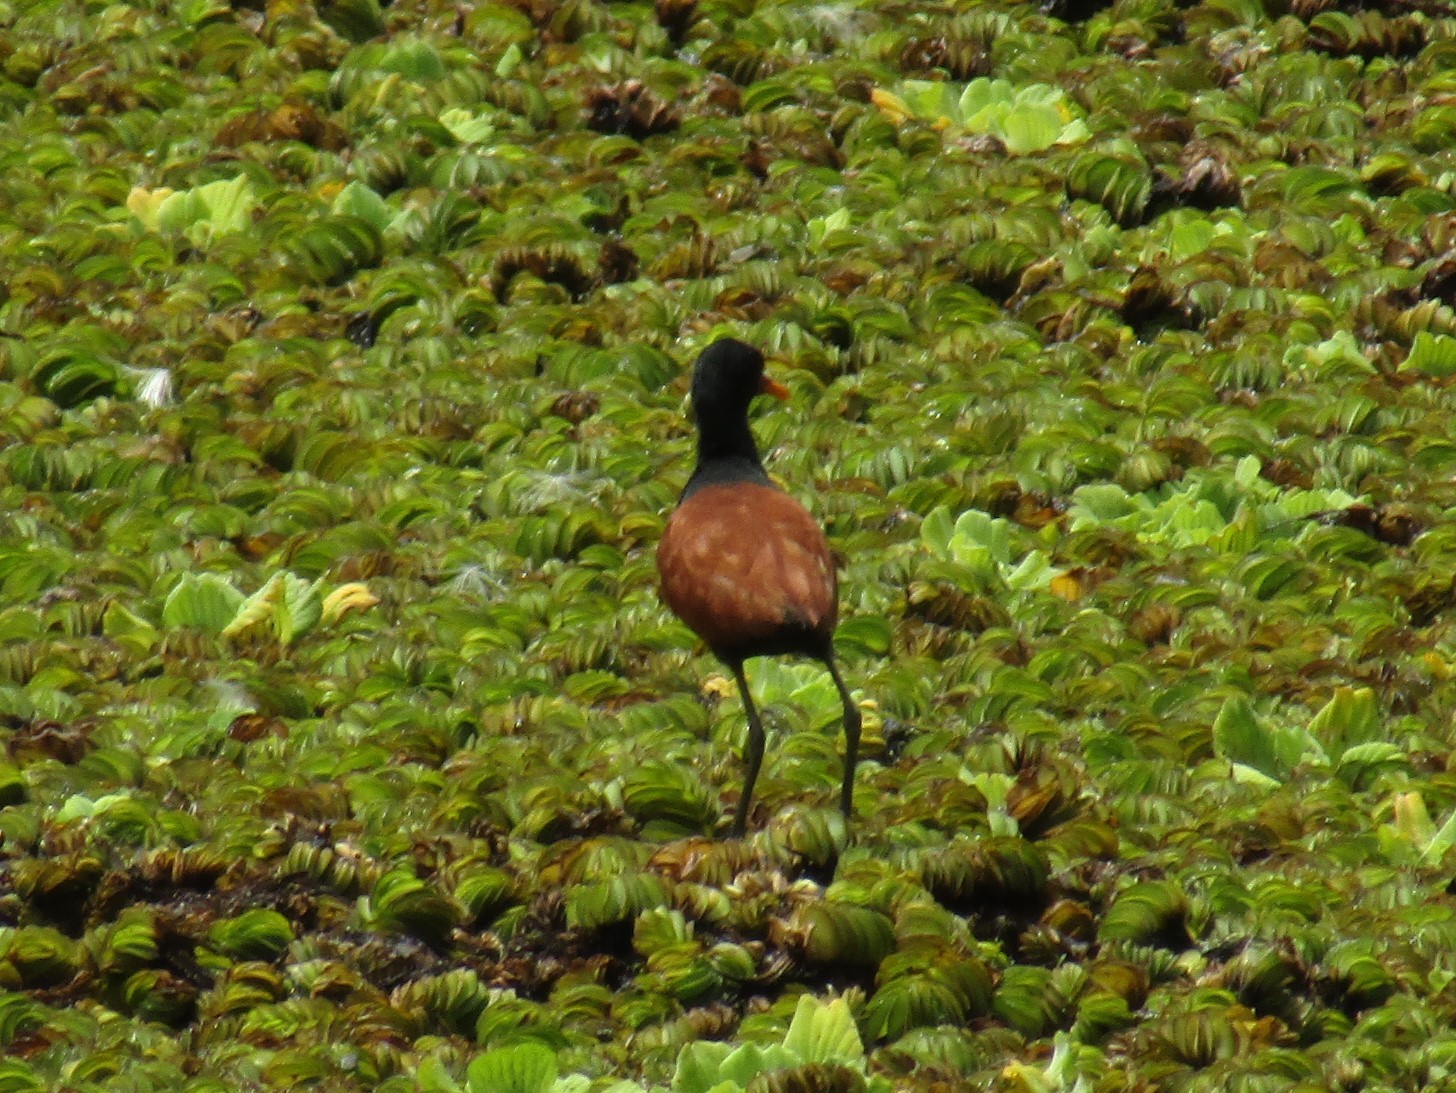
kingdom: Animalia
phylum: Chordata
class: Aves
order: Charadriiformes
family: Jacanidae
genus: Jacana
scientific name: Jacana jacana
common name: Wattled jacana
